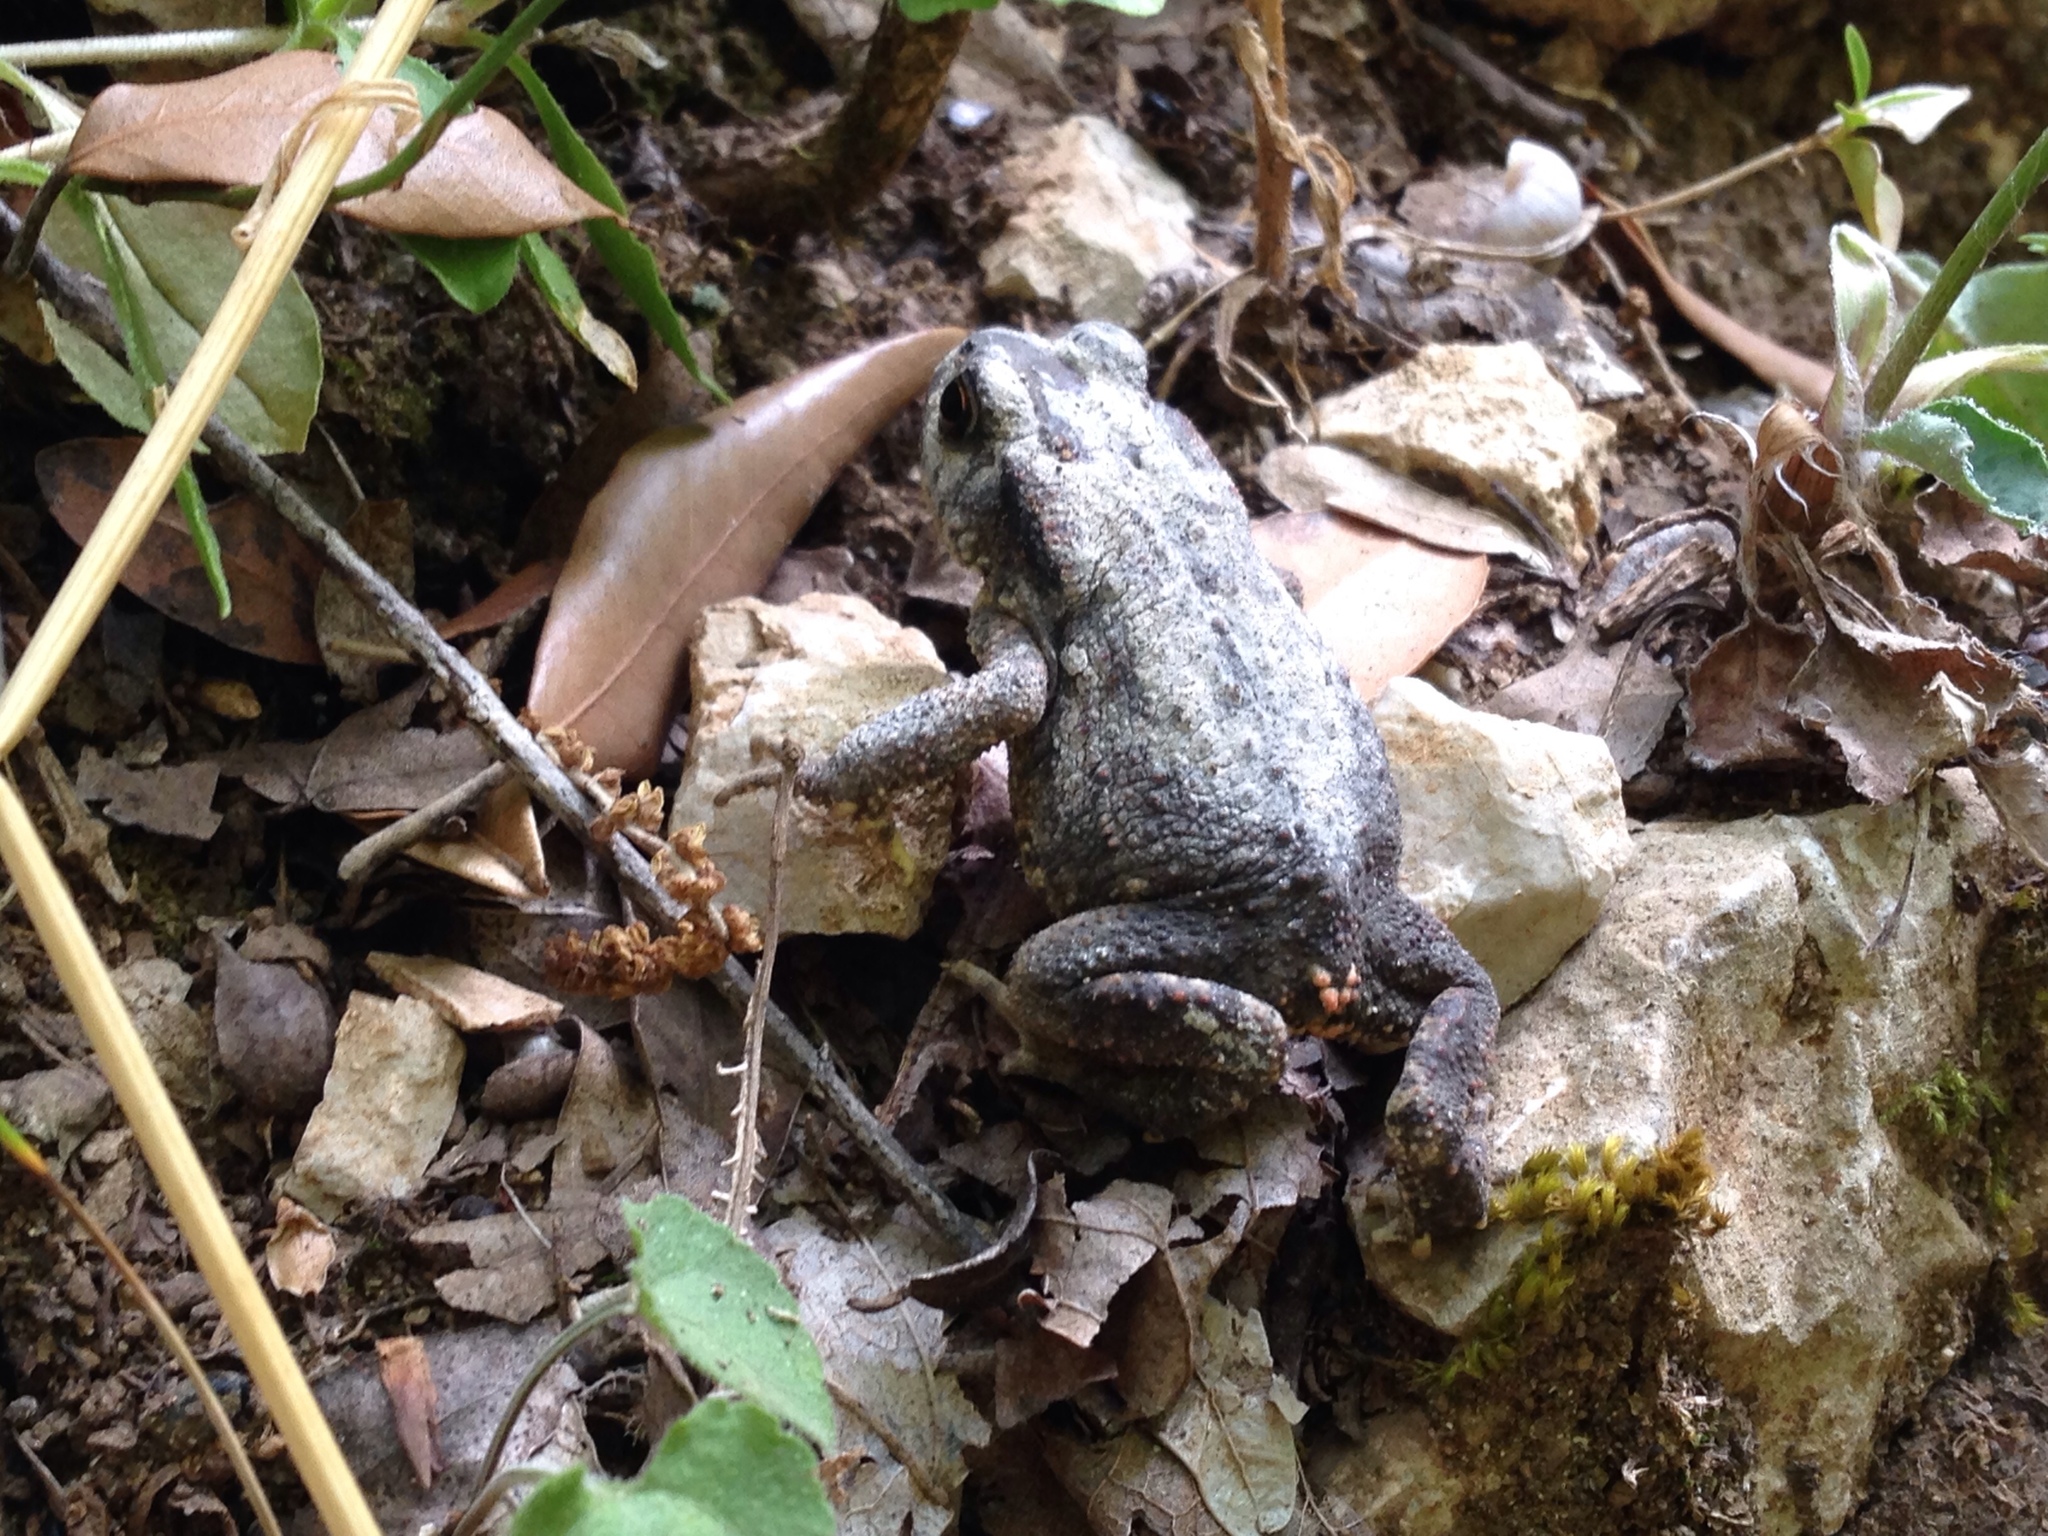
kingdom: Animalia
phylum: Chordata
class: Amphibia
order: Anura
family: Bufonidae
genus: Bufo
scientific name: Bufo spinosus
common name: Western common toad
